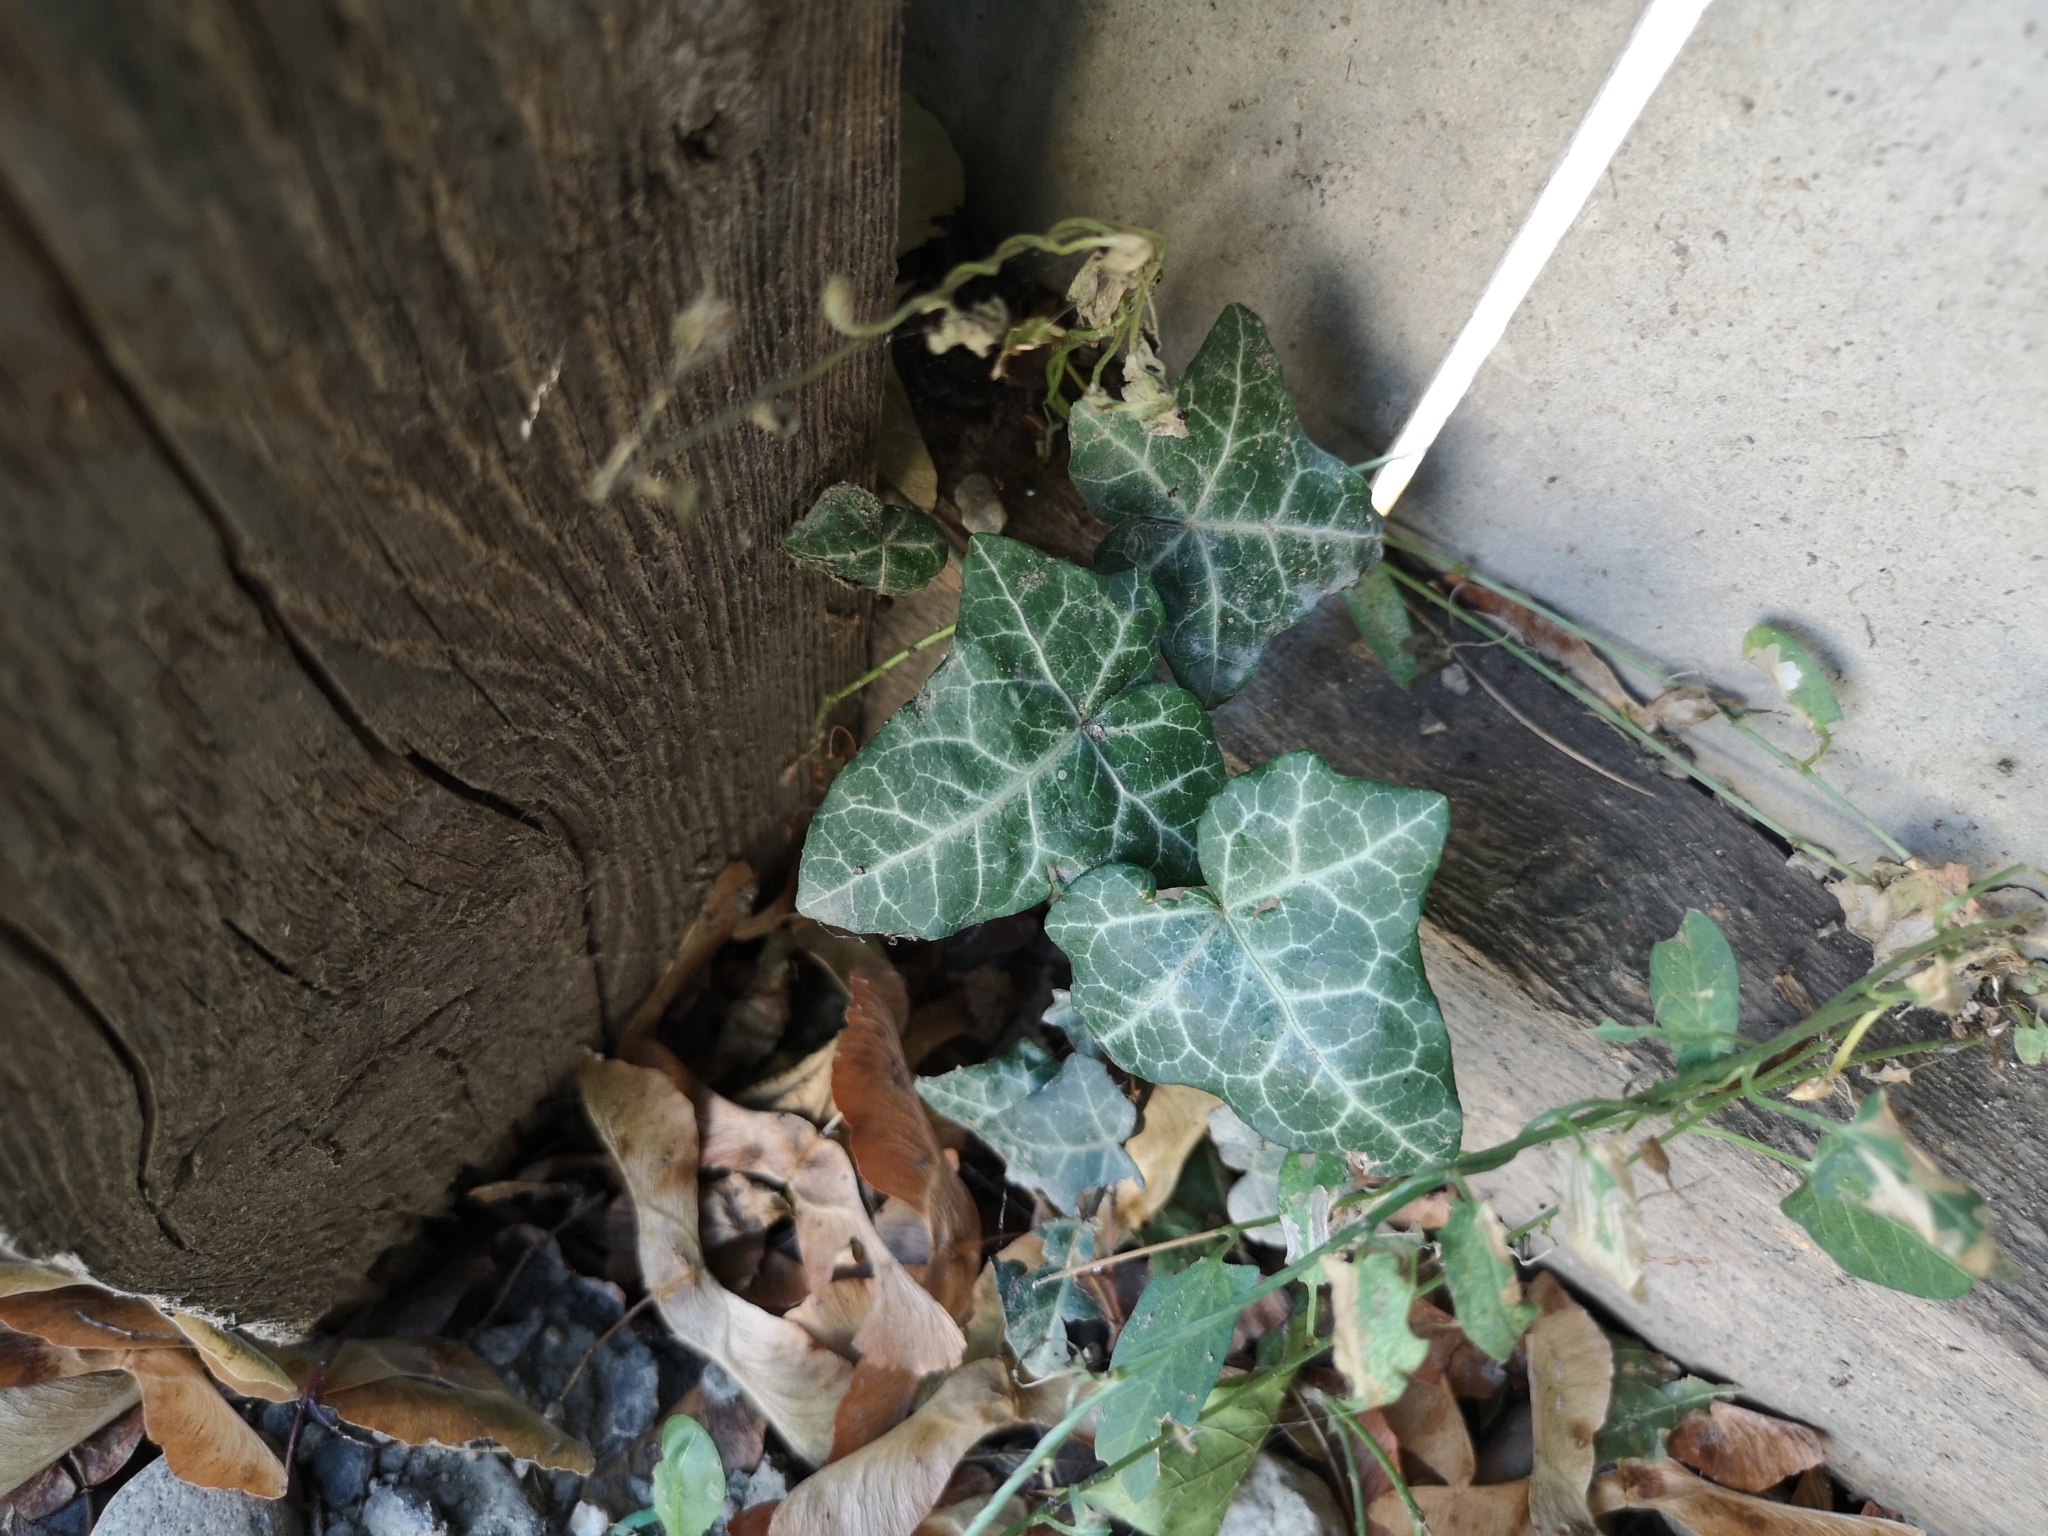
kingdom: Plantae
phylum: Tracheophyta
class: Magnoliopsida
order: Apiales
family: Araliaceae
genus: Hedera
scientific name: Hedera helix
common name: Ivy
